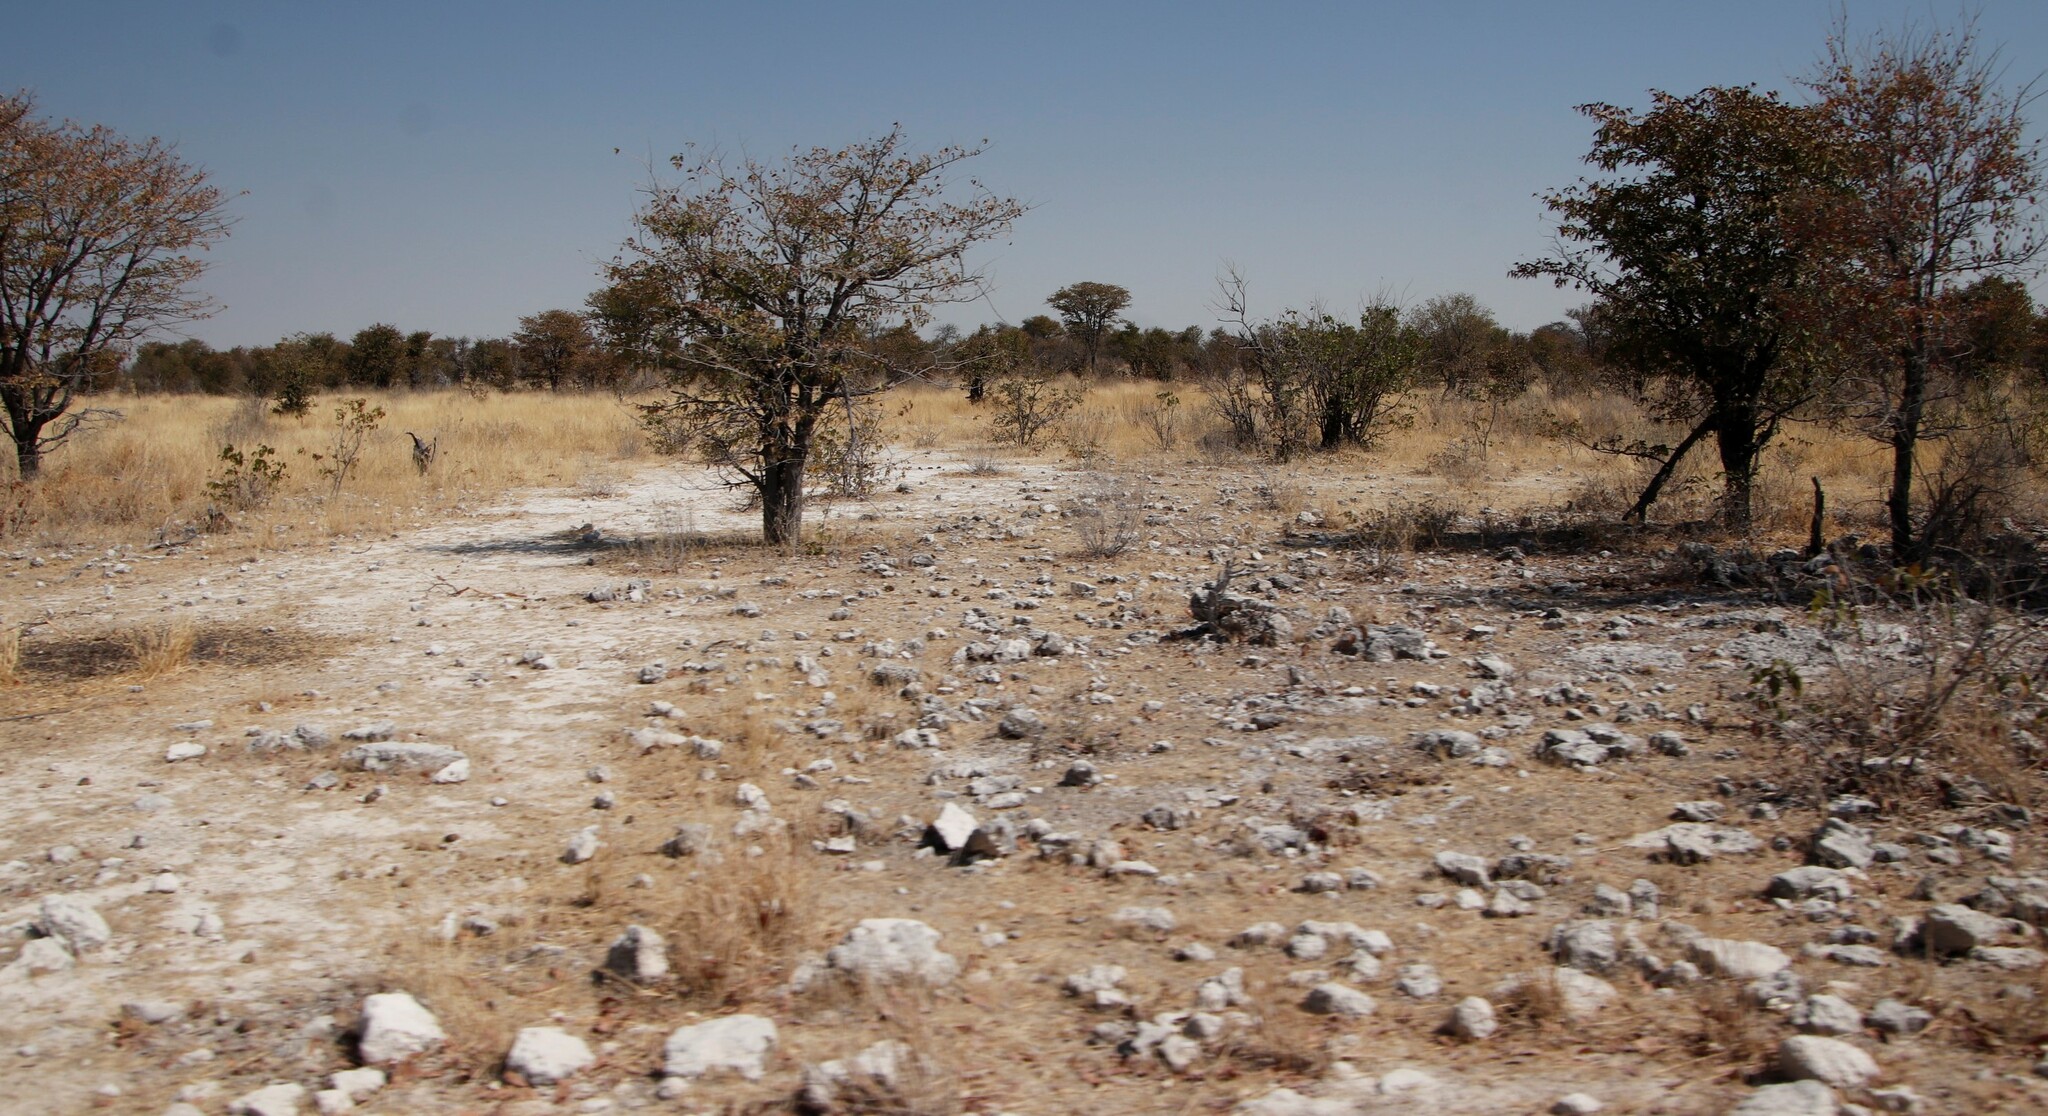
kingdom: Plantae
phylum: Tracheophyta
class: Magnoliopsida
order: Fabales
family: Fabaceae
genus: Colophospermum
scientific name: Colophospermum mopane
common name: Mopane
